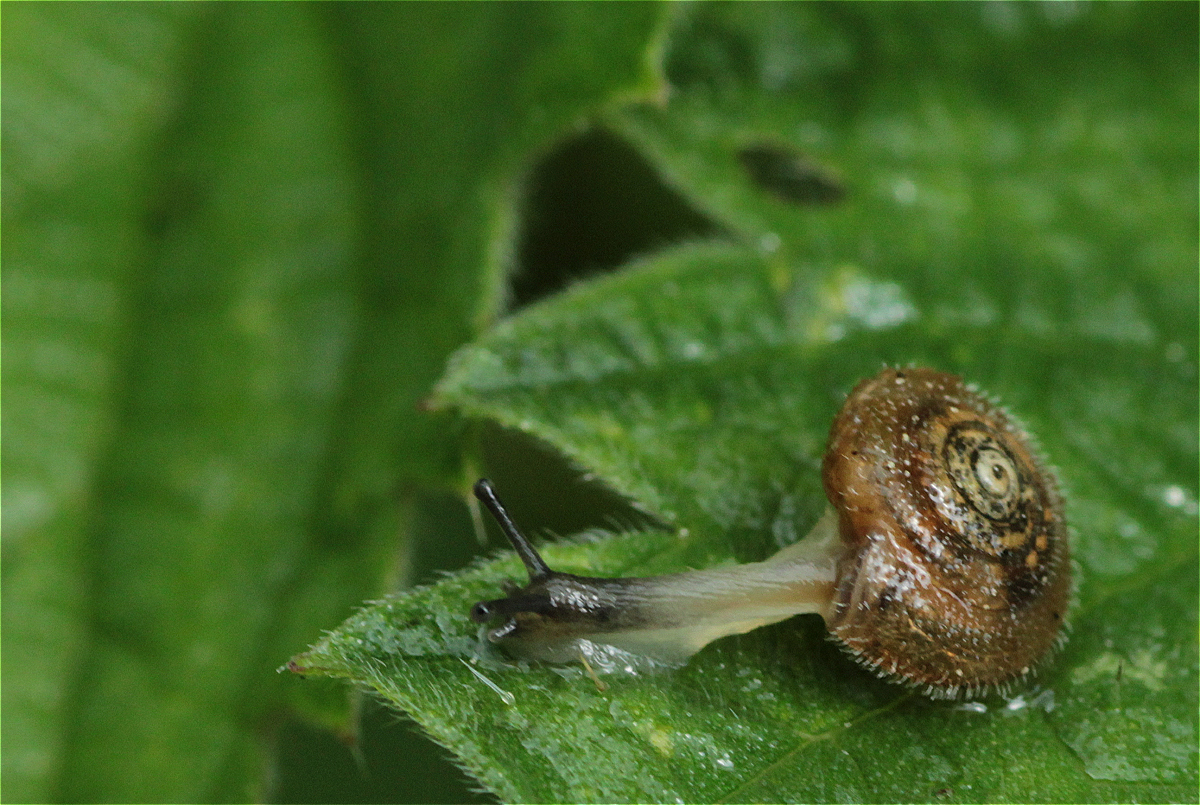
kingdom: Animalia
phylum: Mollusca
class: Gastropoda
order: Stylommatophora
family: Hygromiidae
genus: Trochulus
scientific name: Trochulus hispidus
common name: Hairy snail
